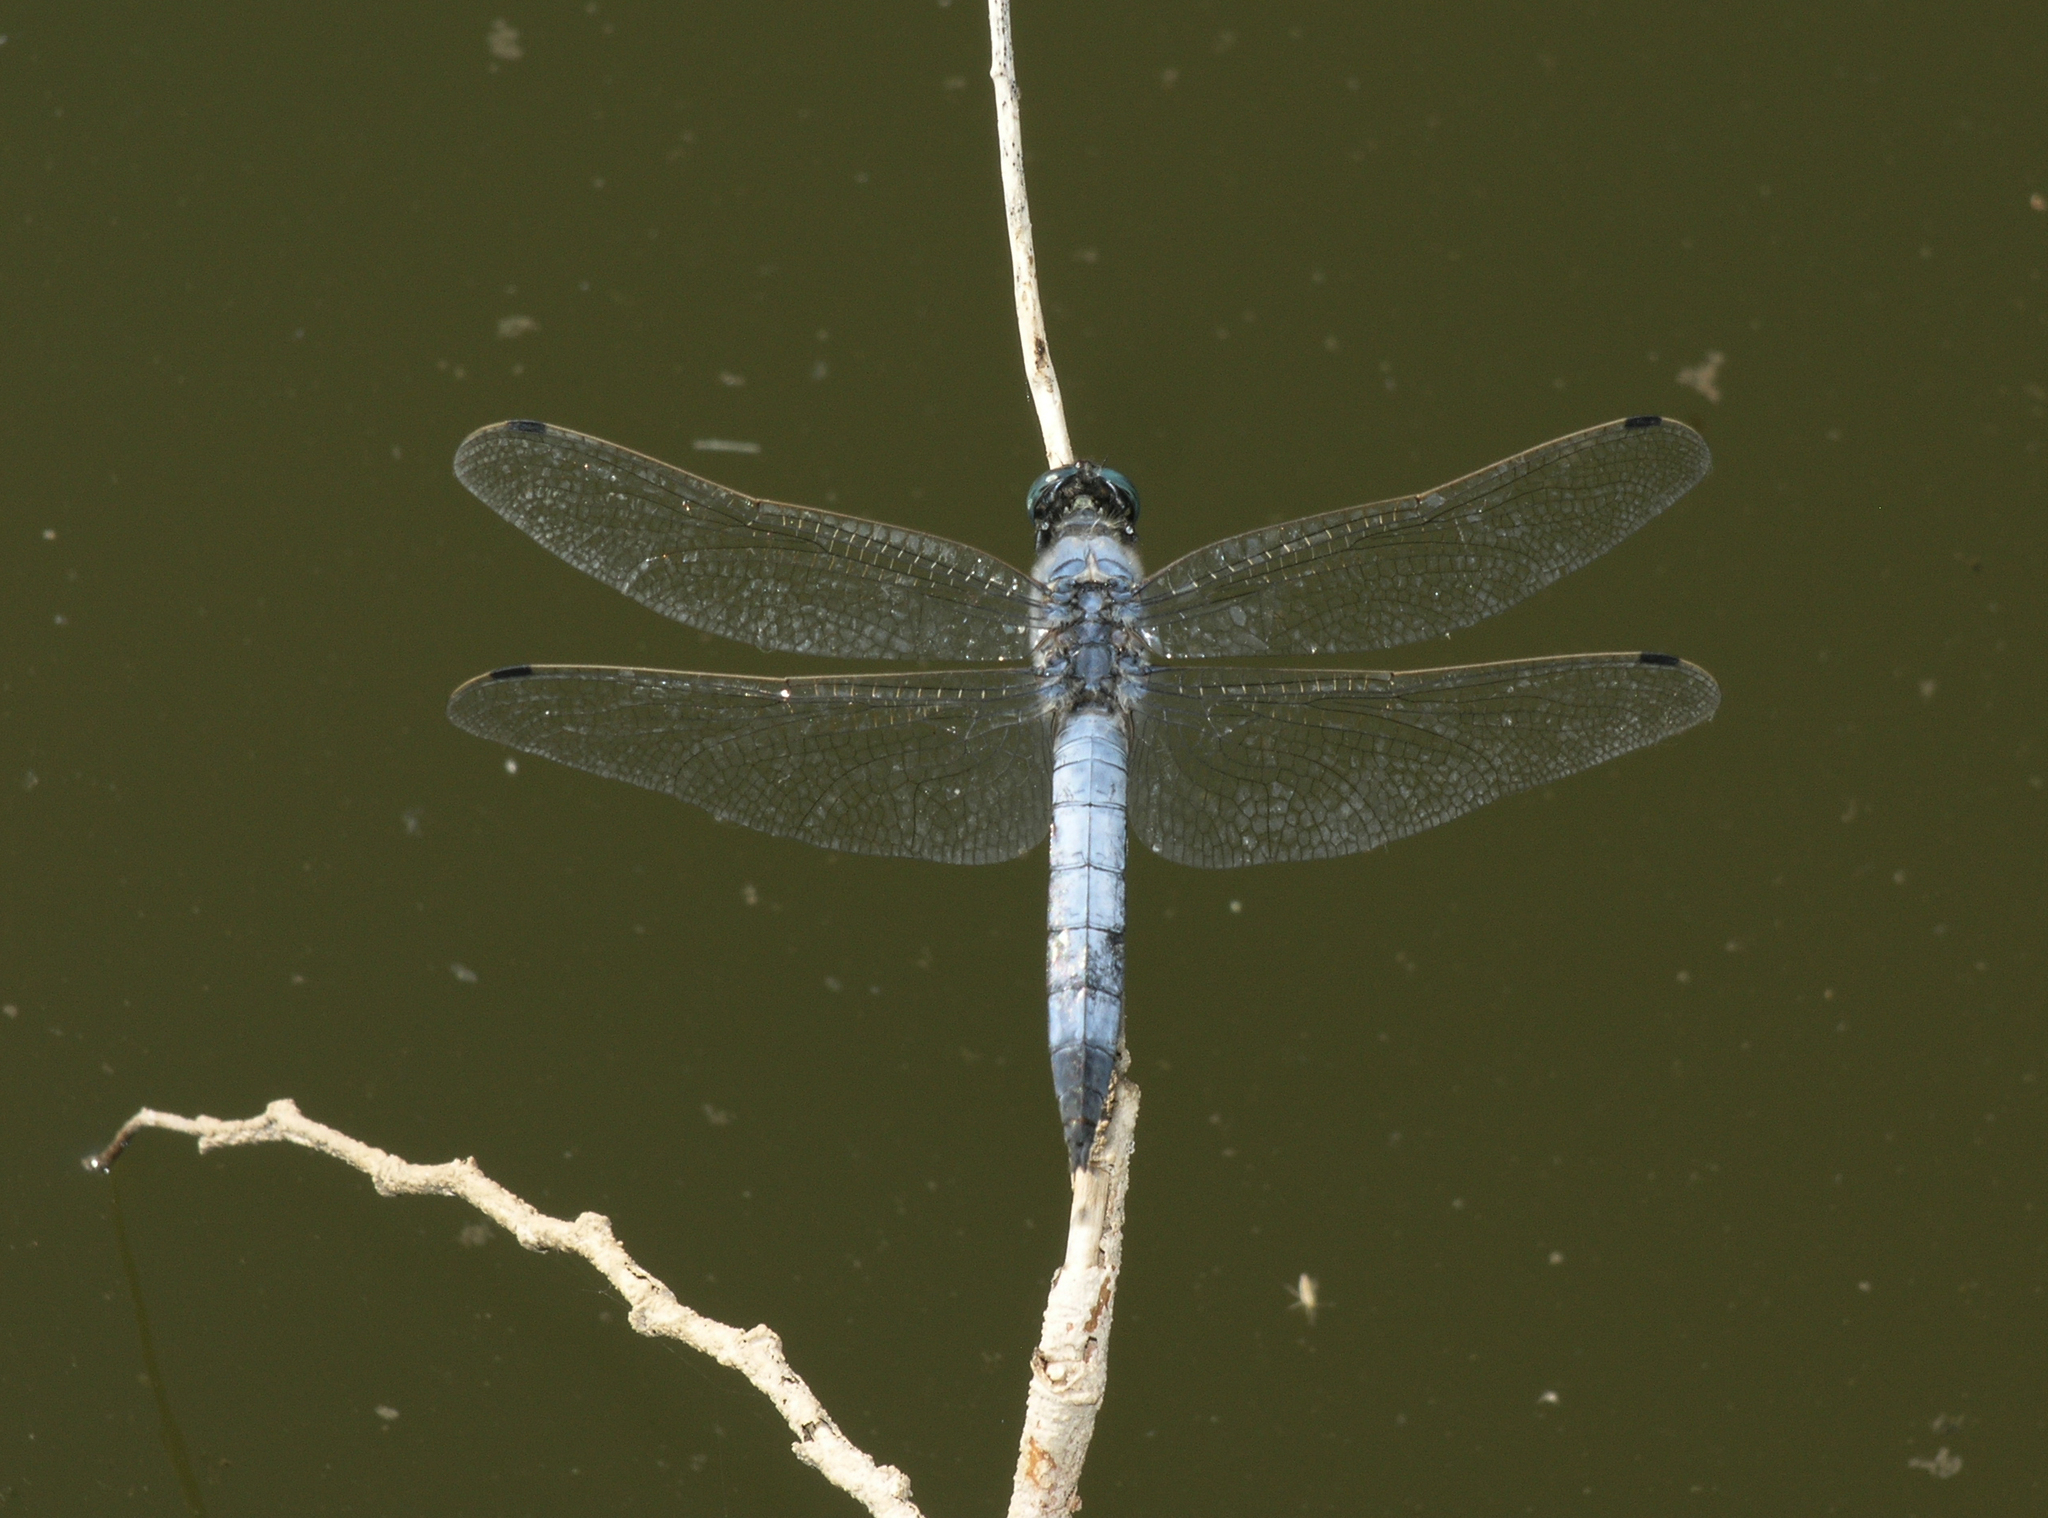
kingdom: Animalia
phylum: Arthropoda
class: Insecta
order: Odonata
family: Libellulidae
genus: Orthetrum
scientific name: Orthetrum cancellatum
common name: Black-tailed skimmer
